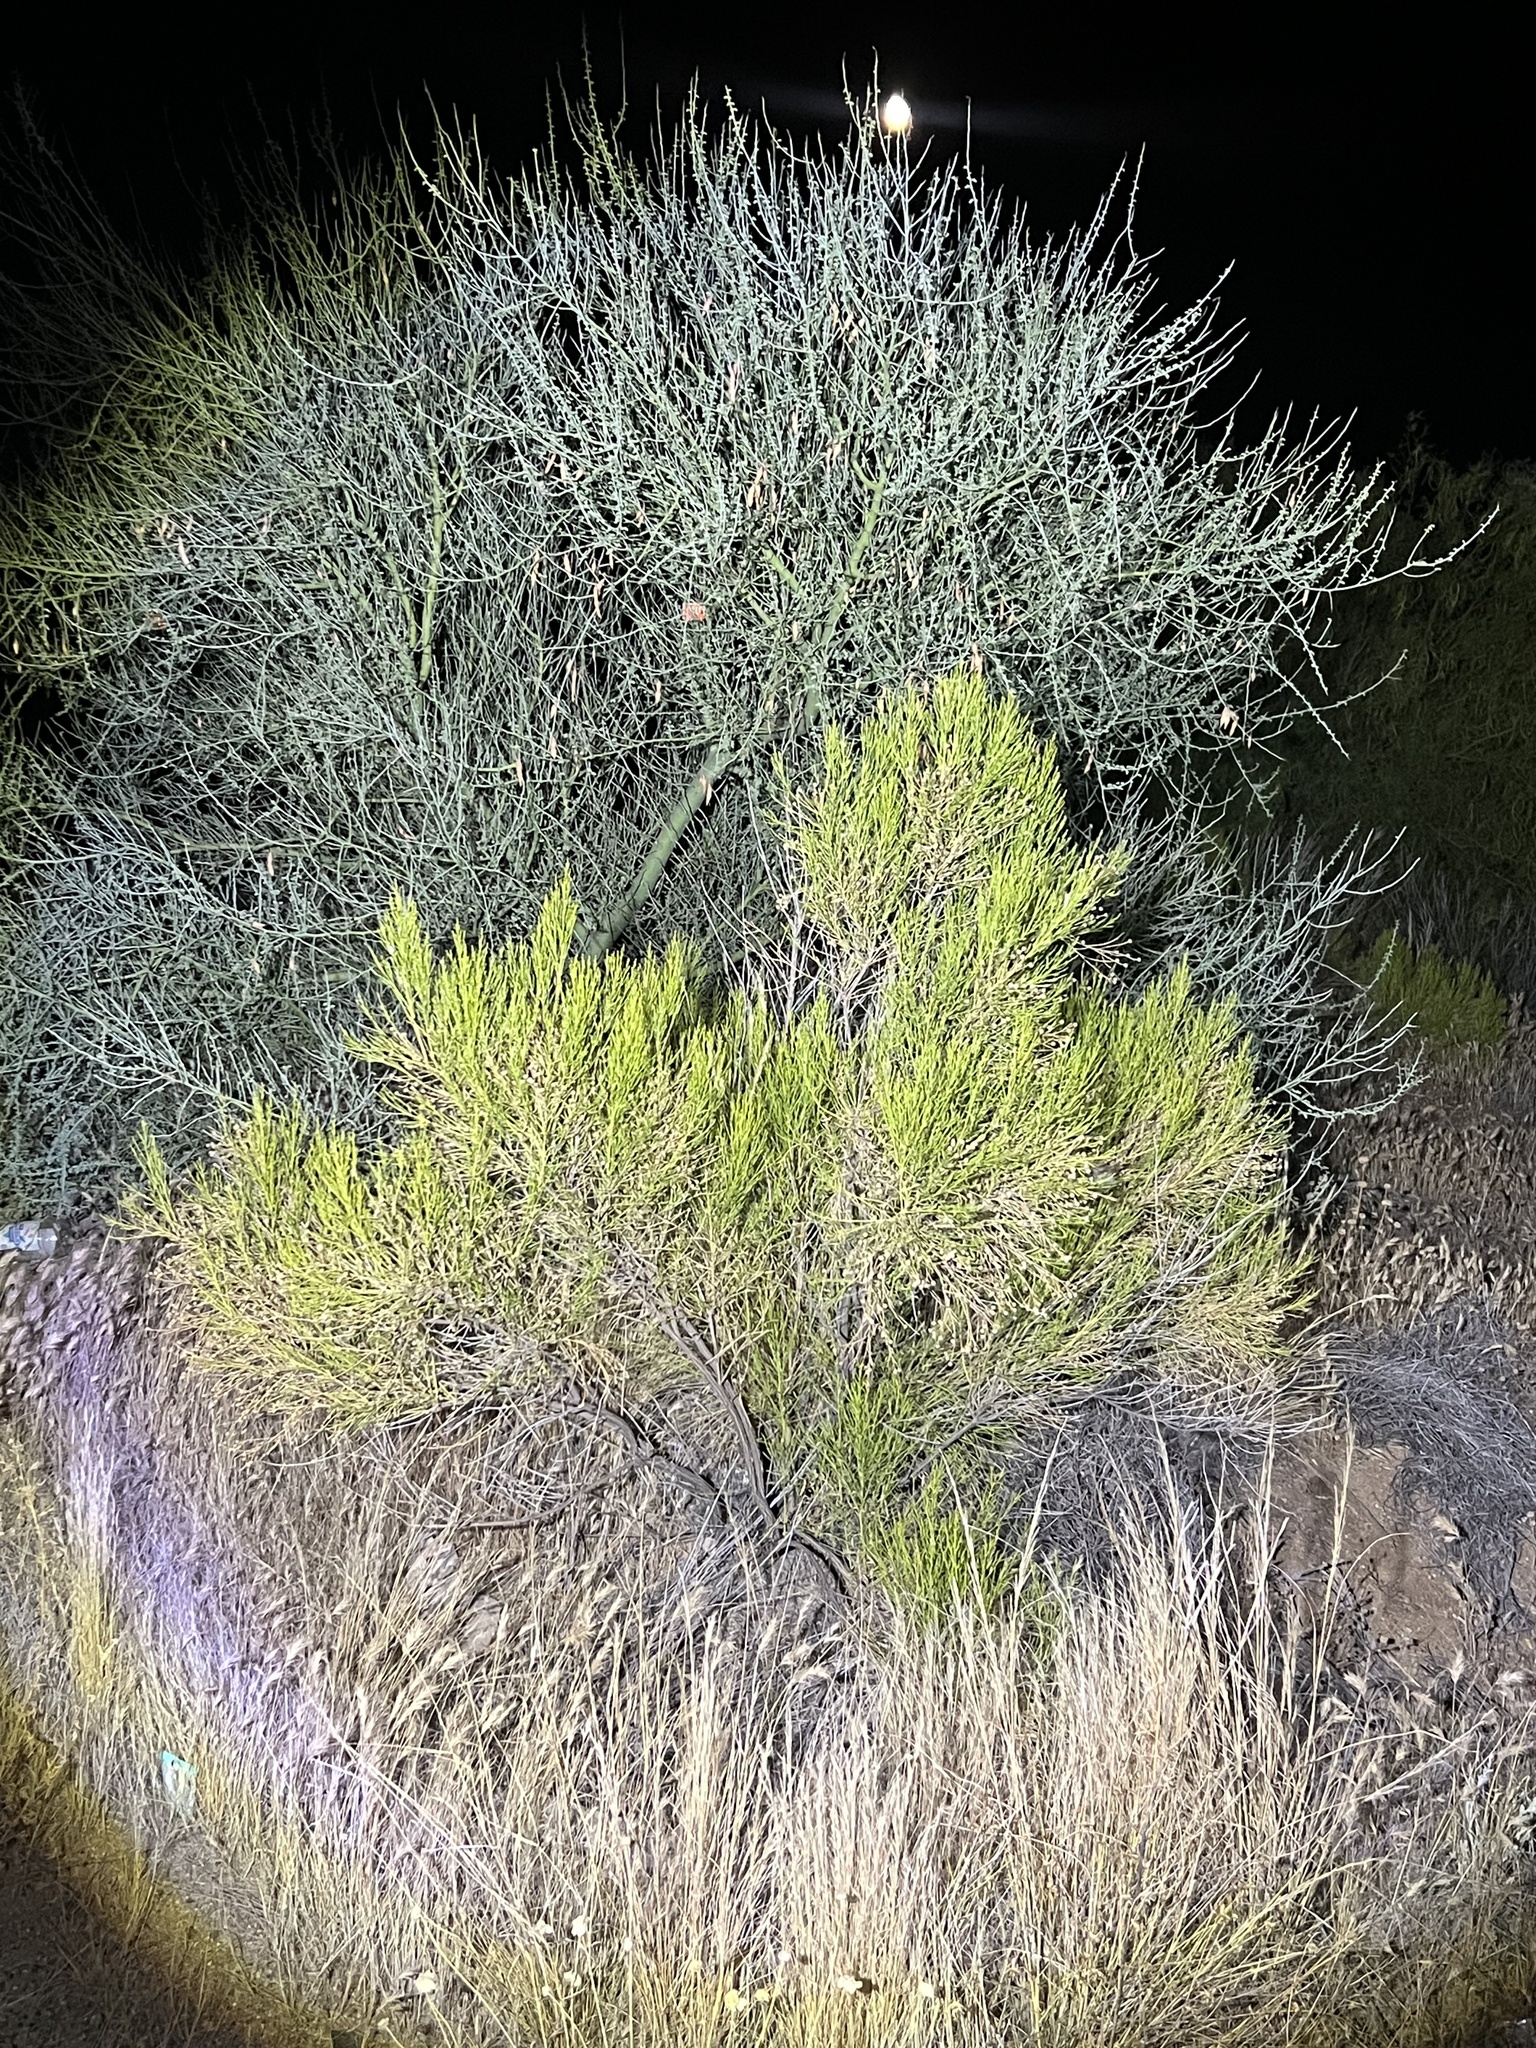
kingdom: Plantae
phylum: Tracheophyta
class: Magnoliopsida
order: Asterales
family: Asteraceae
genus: Baccharis
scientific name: Baccharis sarothroides
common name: Desert-broom
